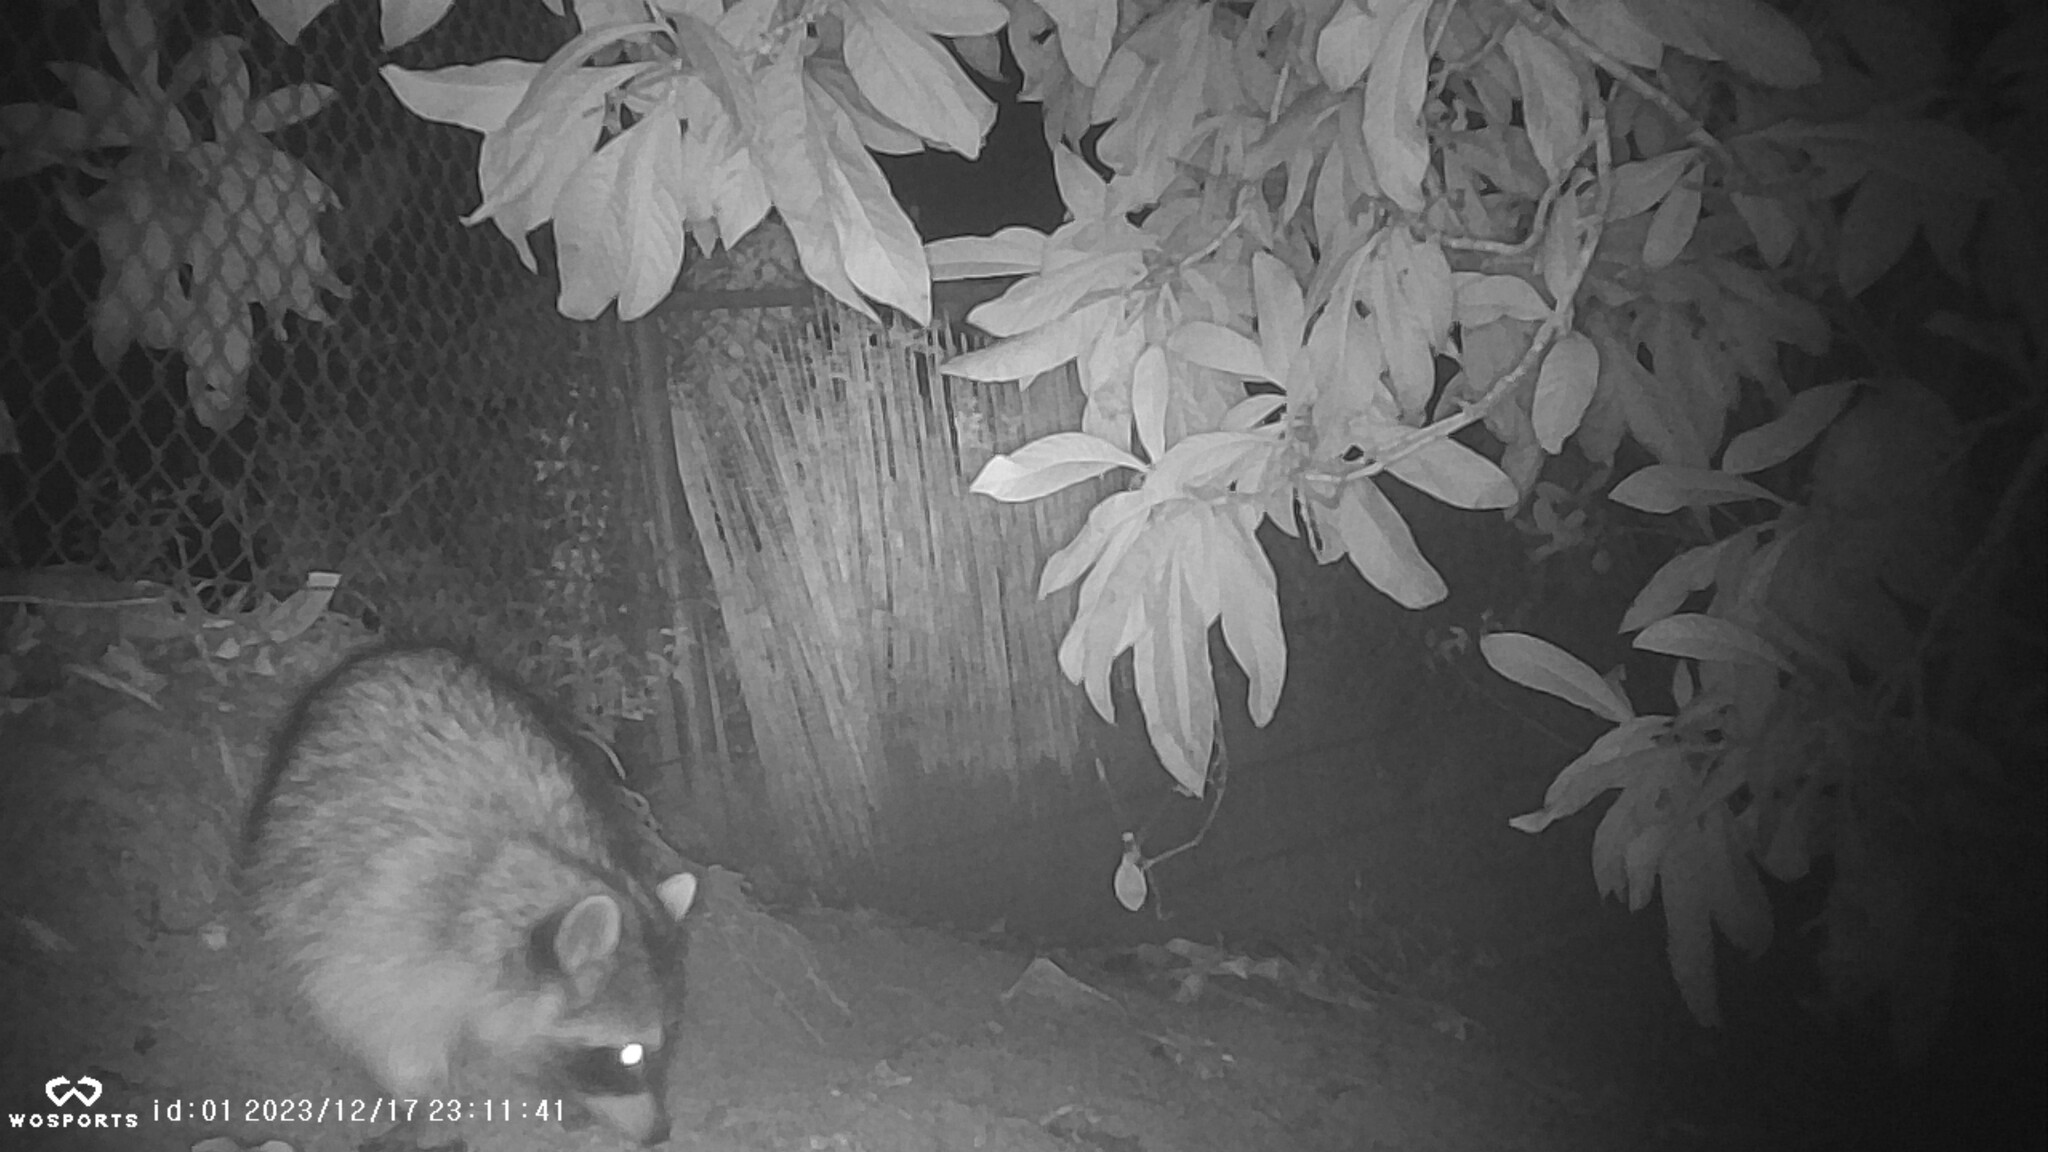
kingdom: Animalia
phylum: Chordata
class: Mammalia
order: Carnivora
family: Procyonidae
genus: Procyon
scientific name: Procyon lotor
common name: Raccoon
